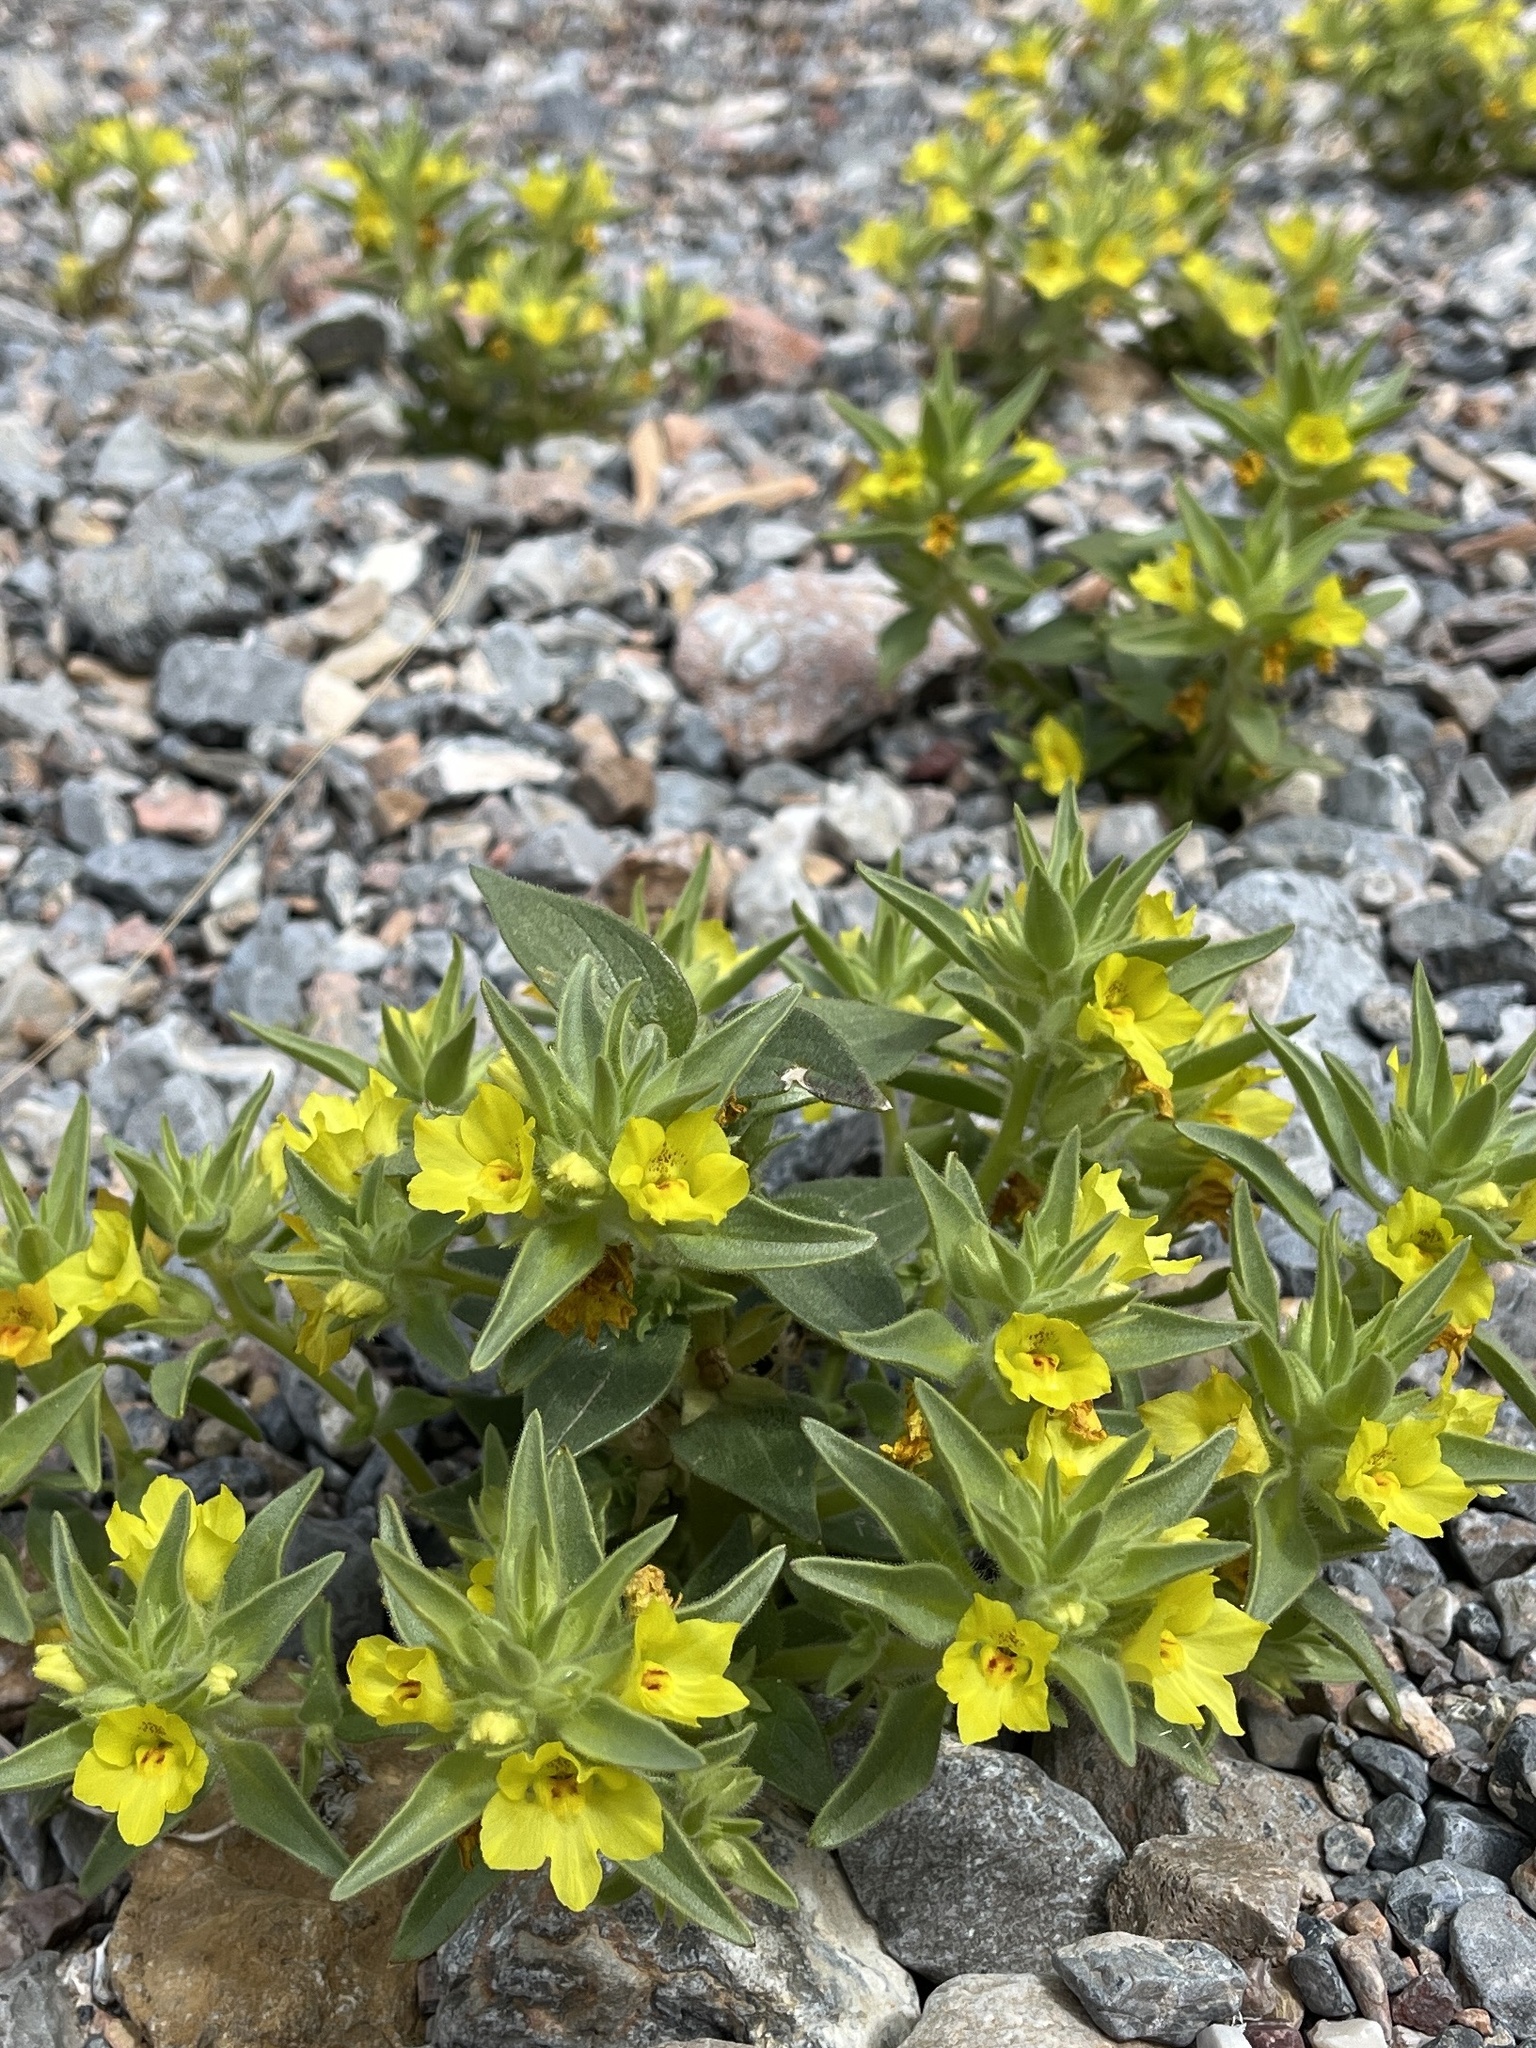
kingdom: Plantae
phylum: Tracheophyta
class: Magnoliopsida
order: Lamiales
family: Plantaginaceae
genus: Mohavea
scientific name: Mohavea breviflora
